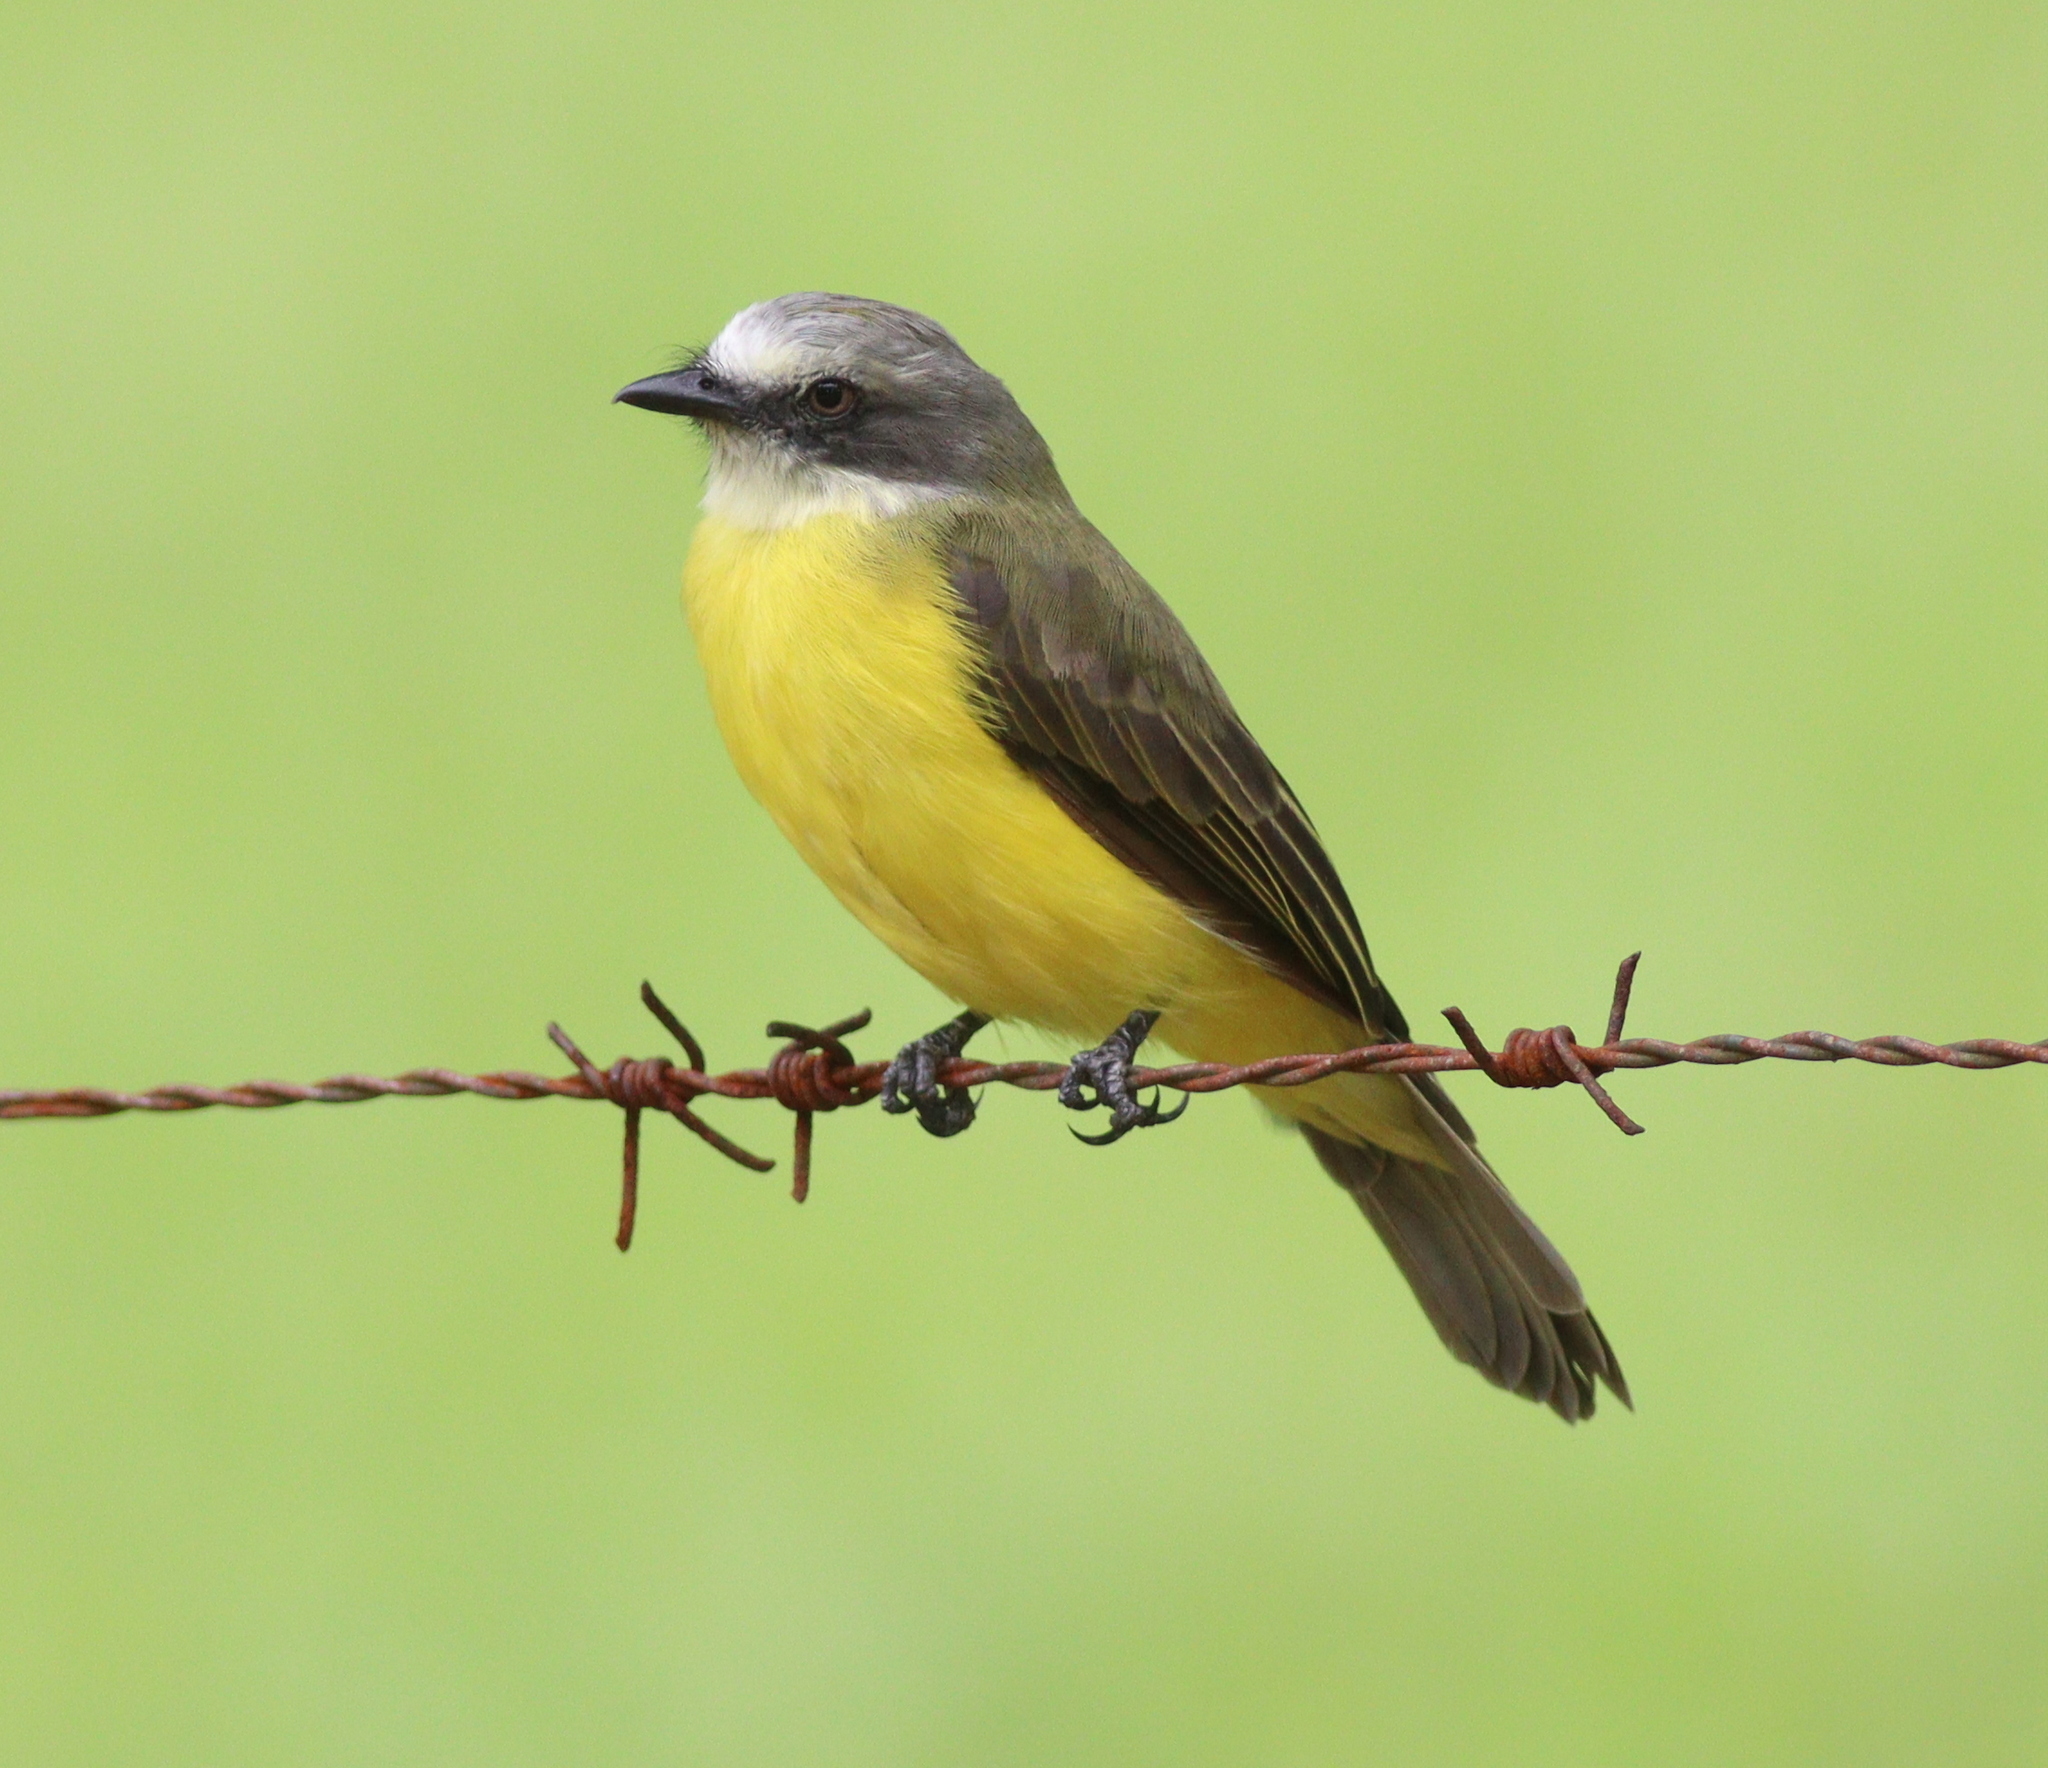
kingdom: Animalia
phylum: Chordata
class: Aves
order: Passeriformes
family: Tyrannidae
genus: Myiozetetes
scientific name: Myiozetetes granadensis
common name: Gray-capped flycatcher
